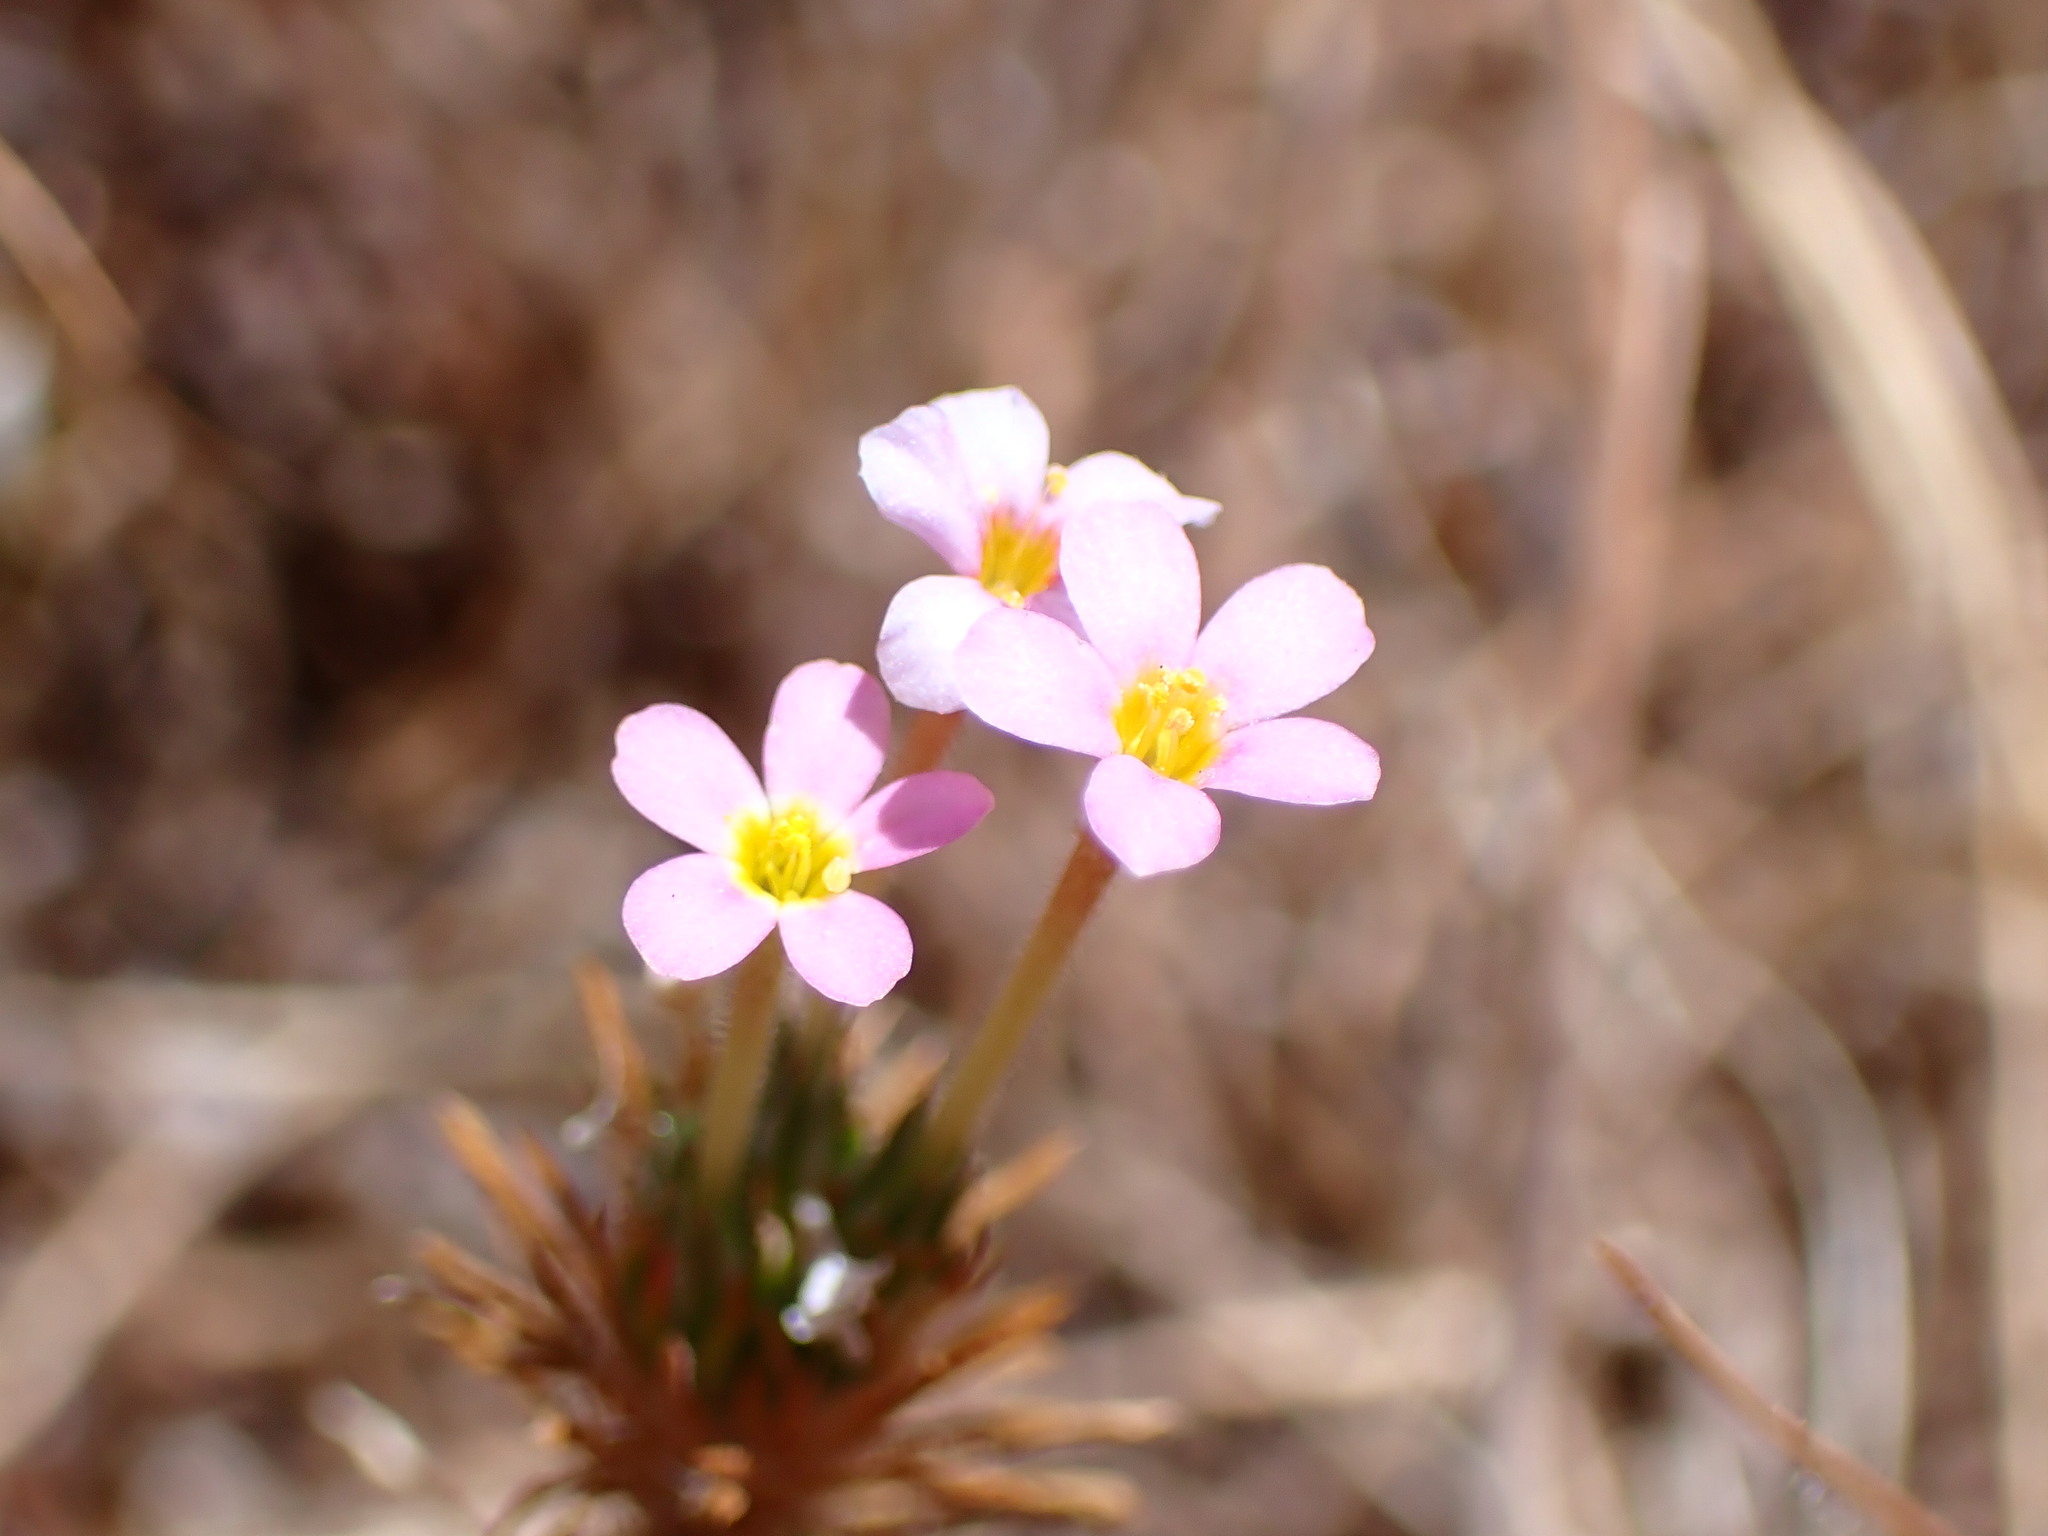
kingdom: Plantae
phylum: Tracheophyta
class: Magnoliopsida
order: Ericales
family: Polemoniaceae
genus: Leptosiphon
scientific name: Leptosiphon ciliatus
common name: Whiskerbrush
